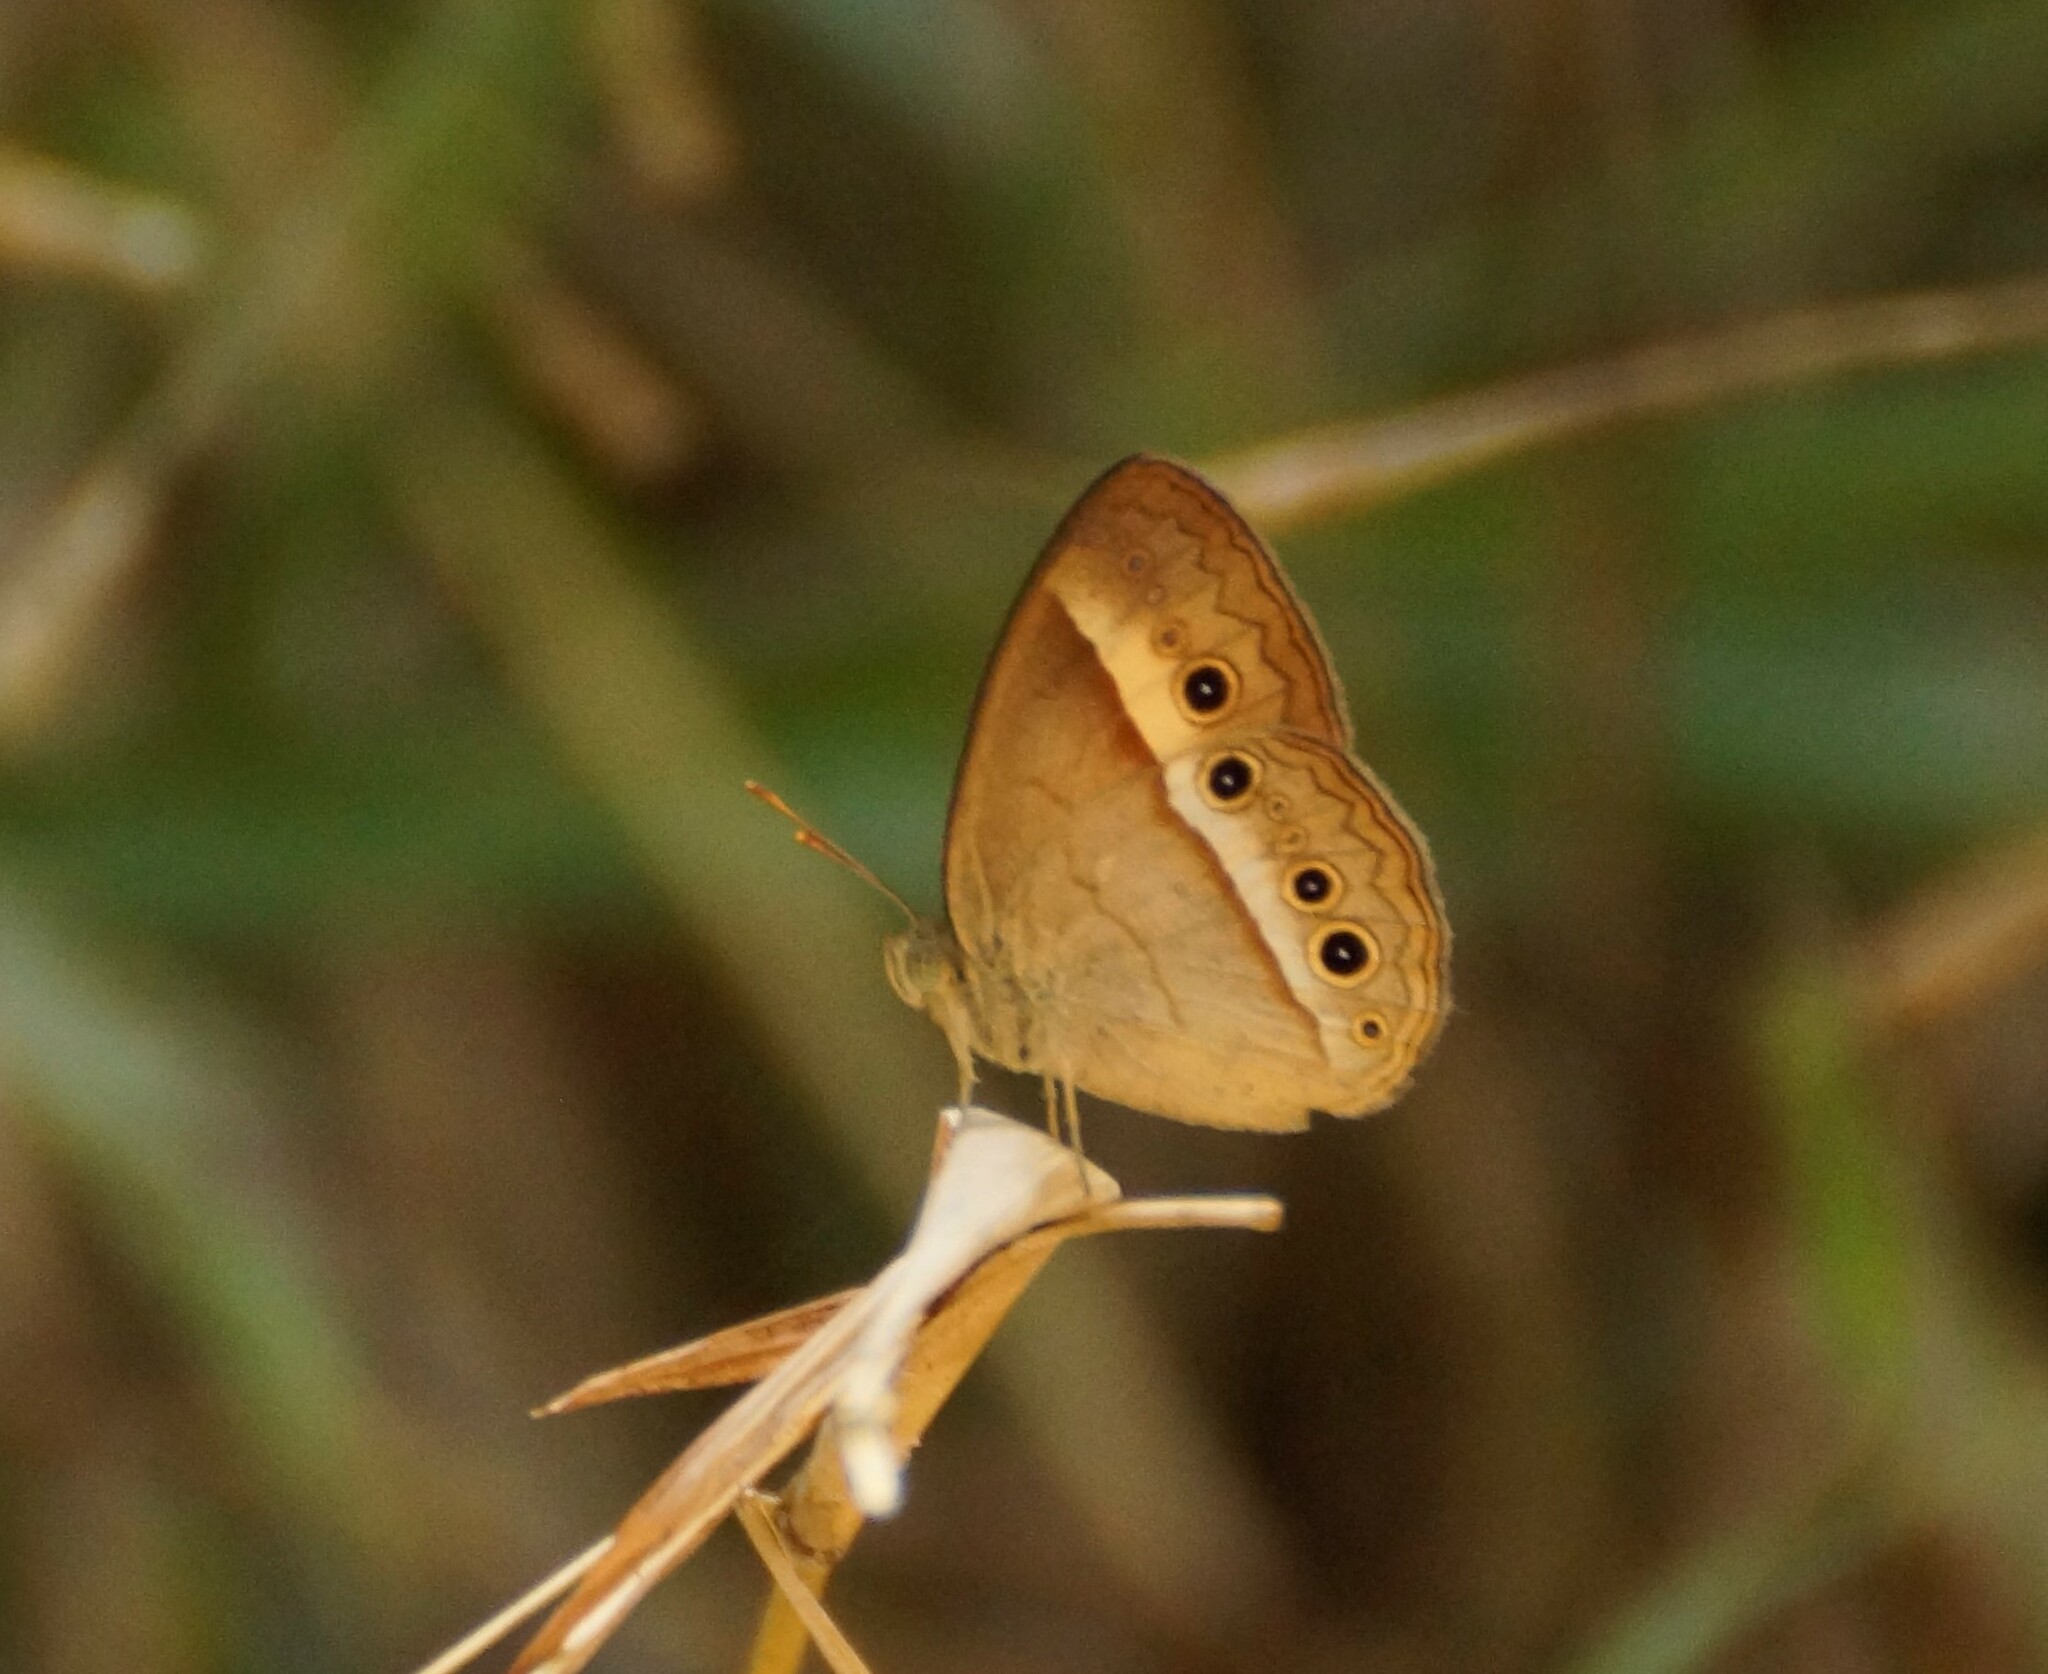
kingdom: Animalia
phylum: Arthropoda
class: Insecta
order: Lepidoptera
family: Nymphalidae
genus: Mycalesis
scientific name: Mycalesis terminus
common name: Orange bushbrown
